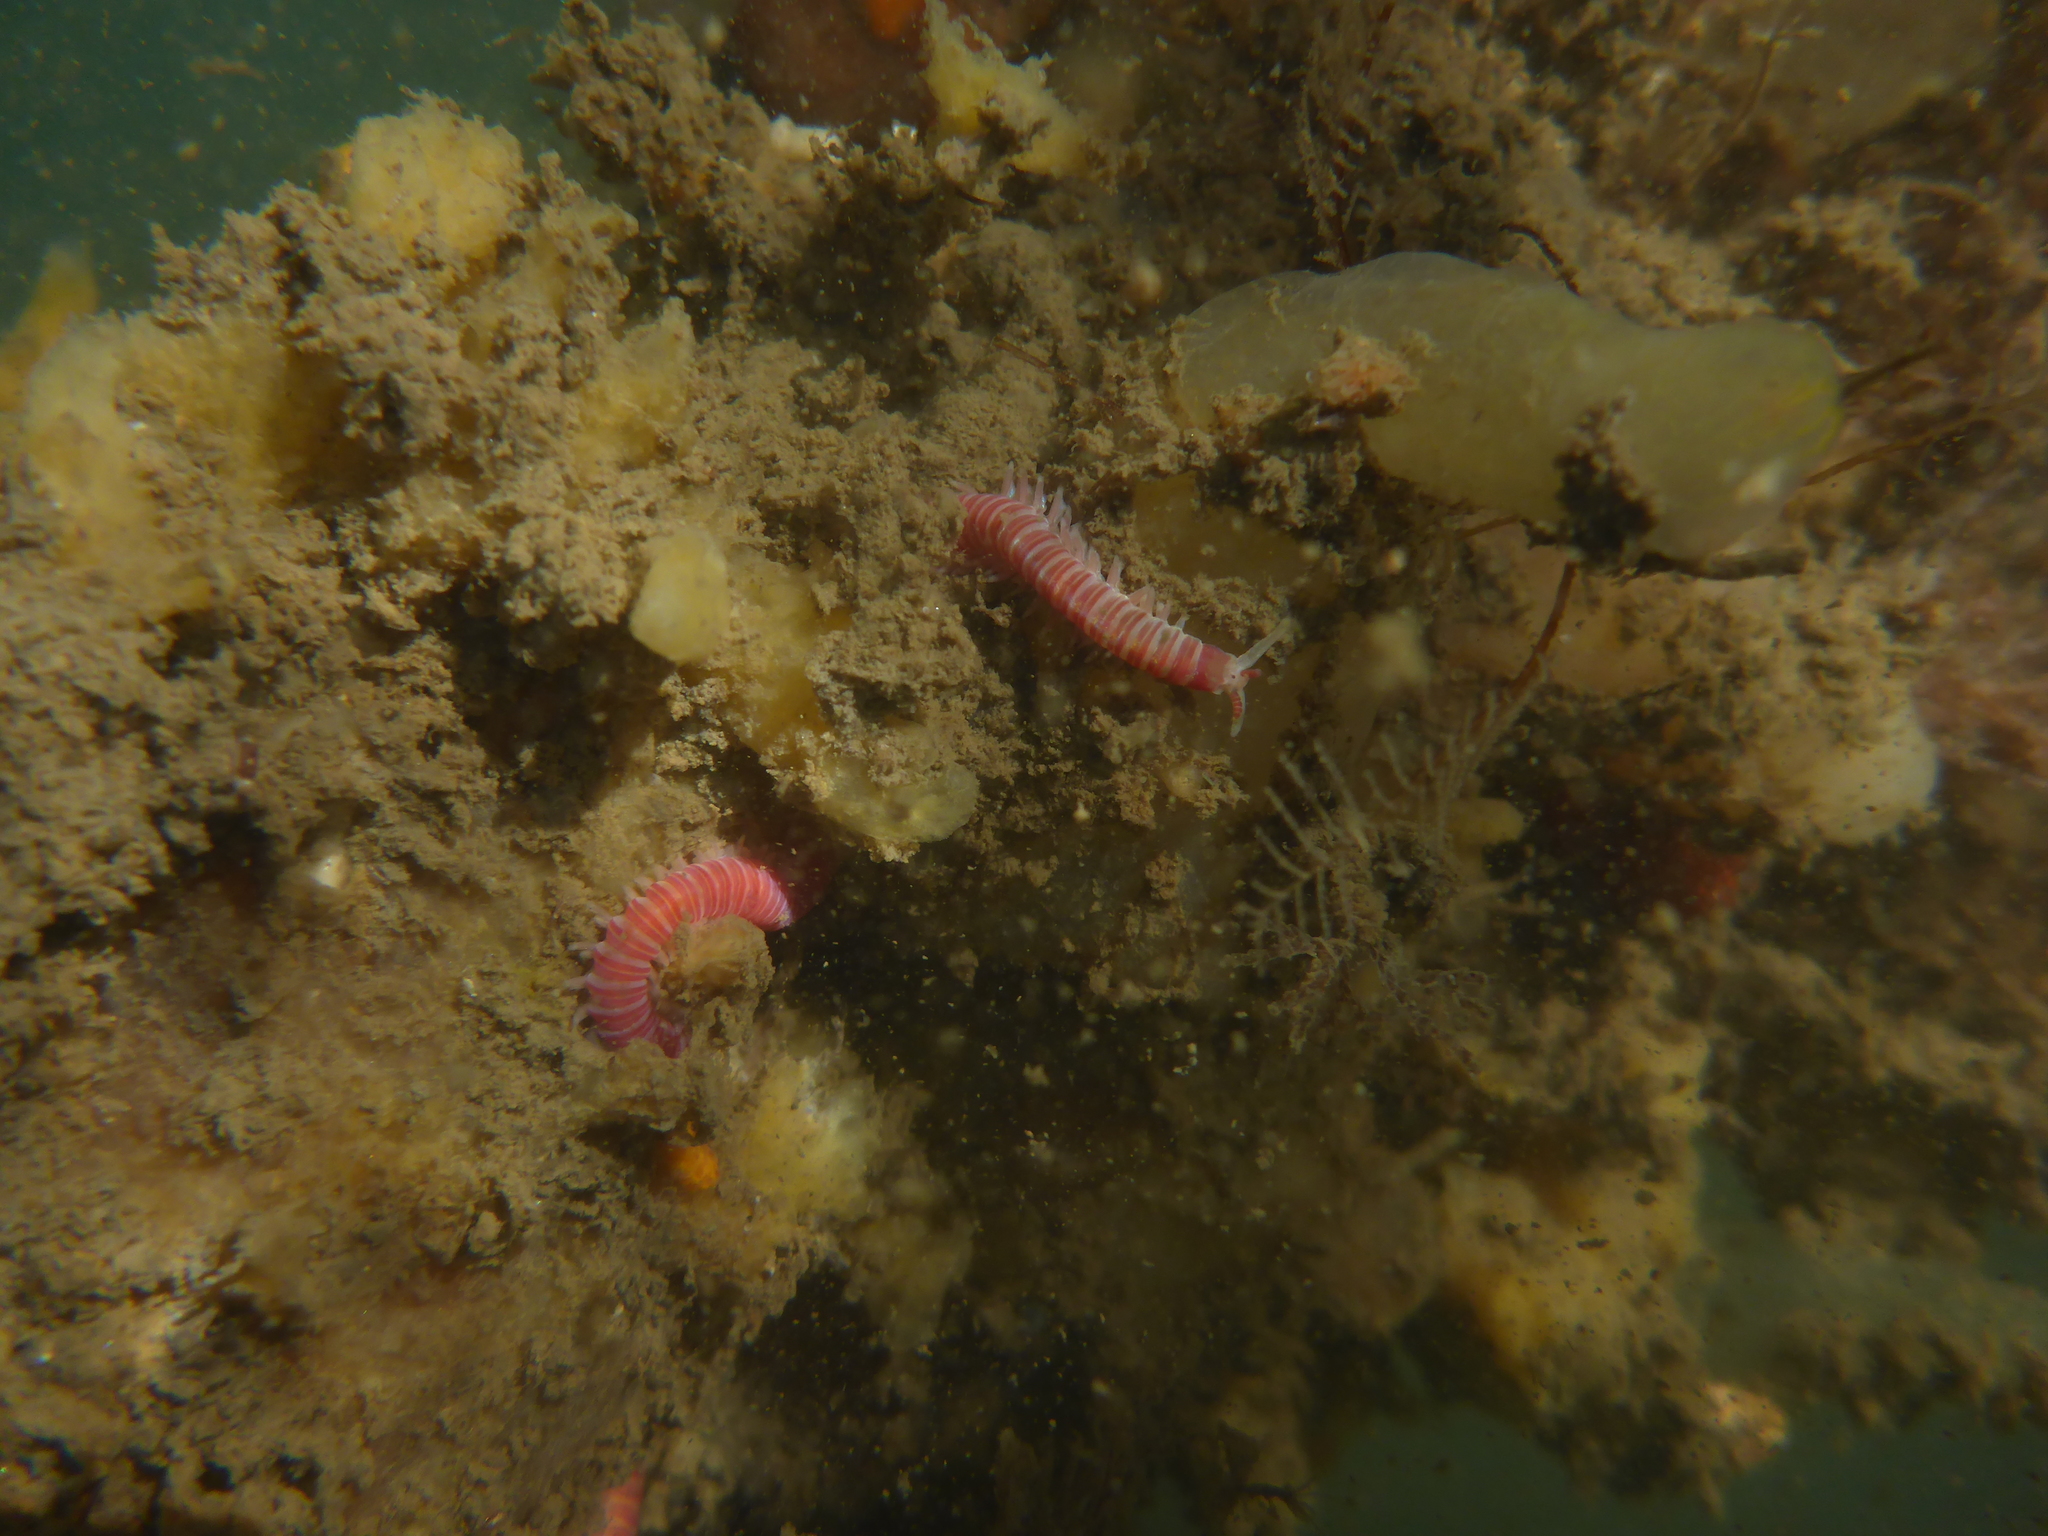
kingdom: Animalia
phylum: Annelida
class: Polychaeta
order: Eunicida
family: Dorvilleidae
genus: Dorvillea
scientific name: Dorvillea moniloceras
